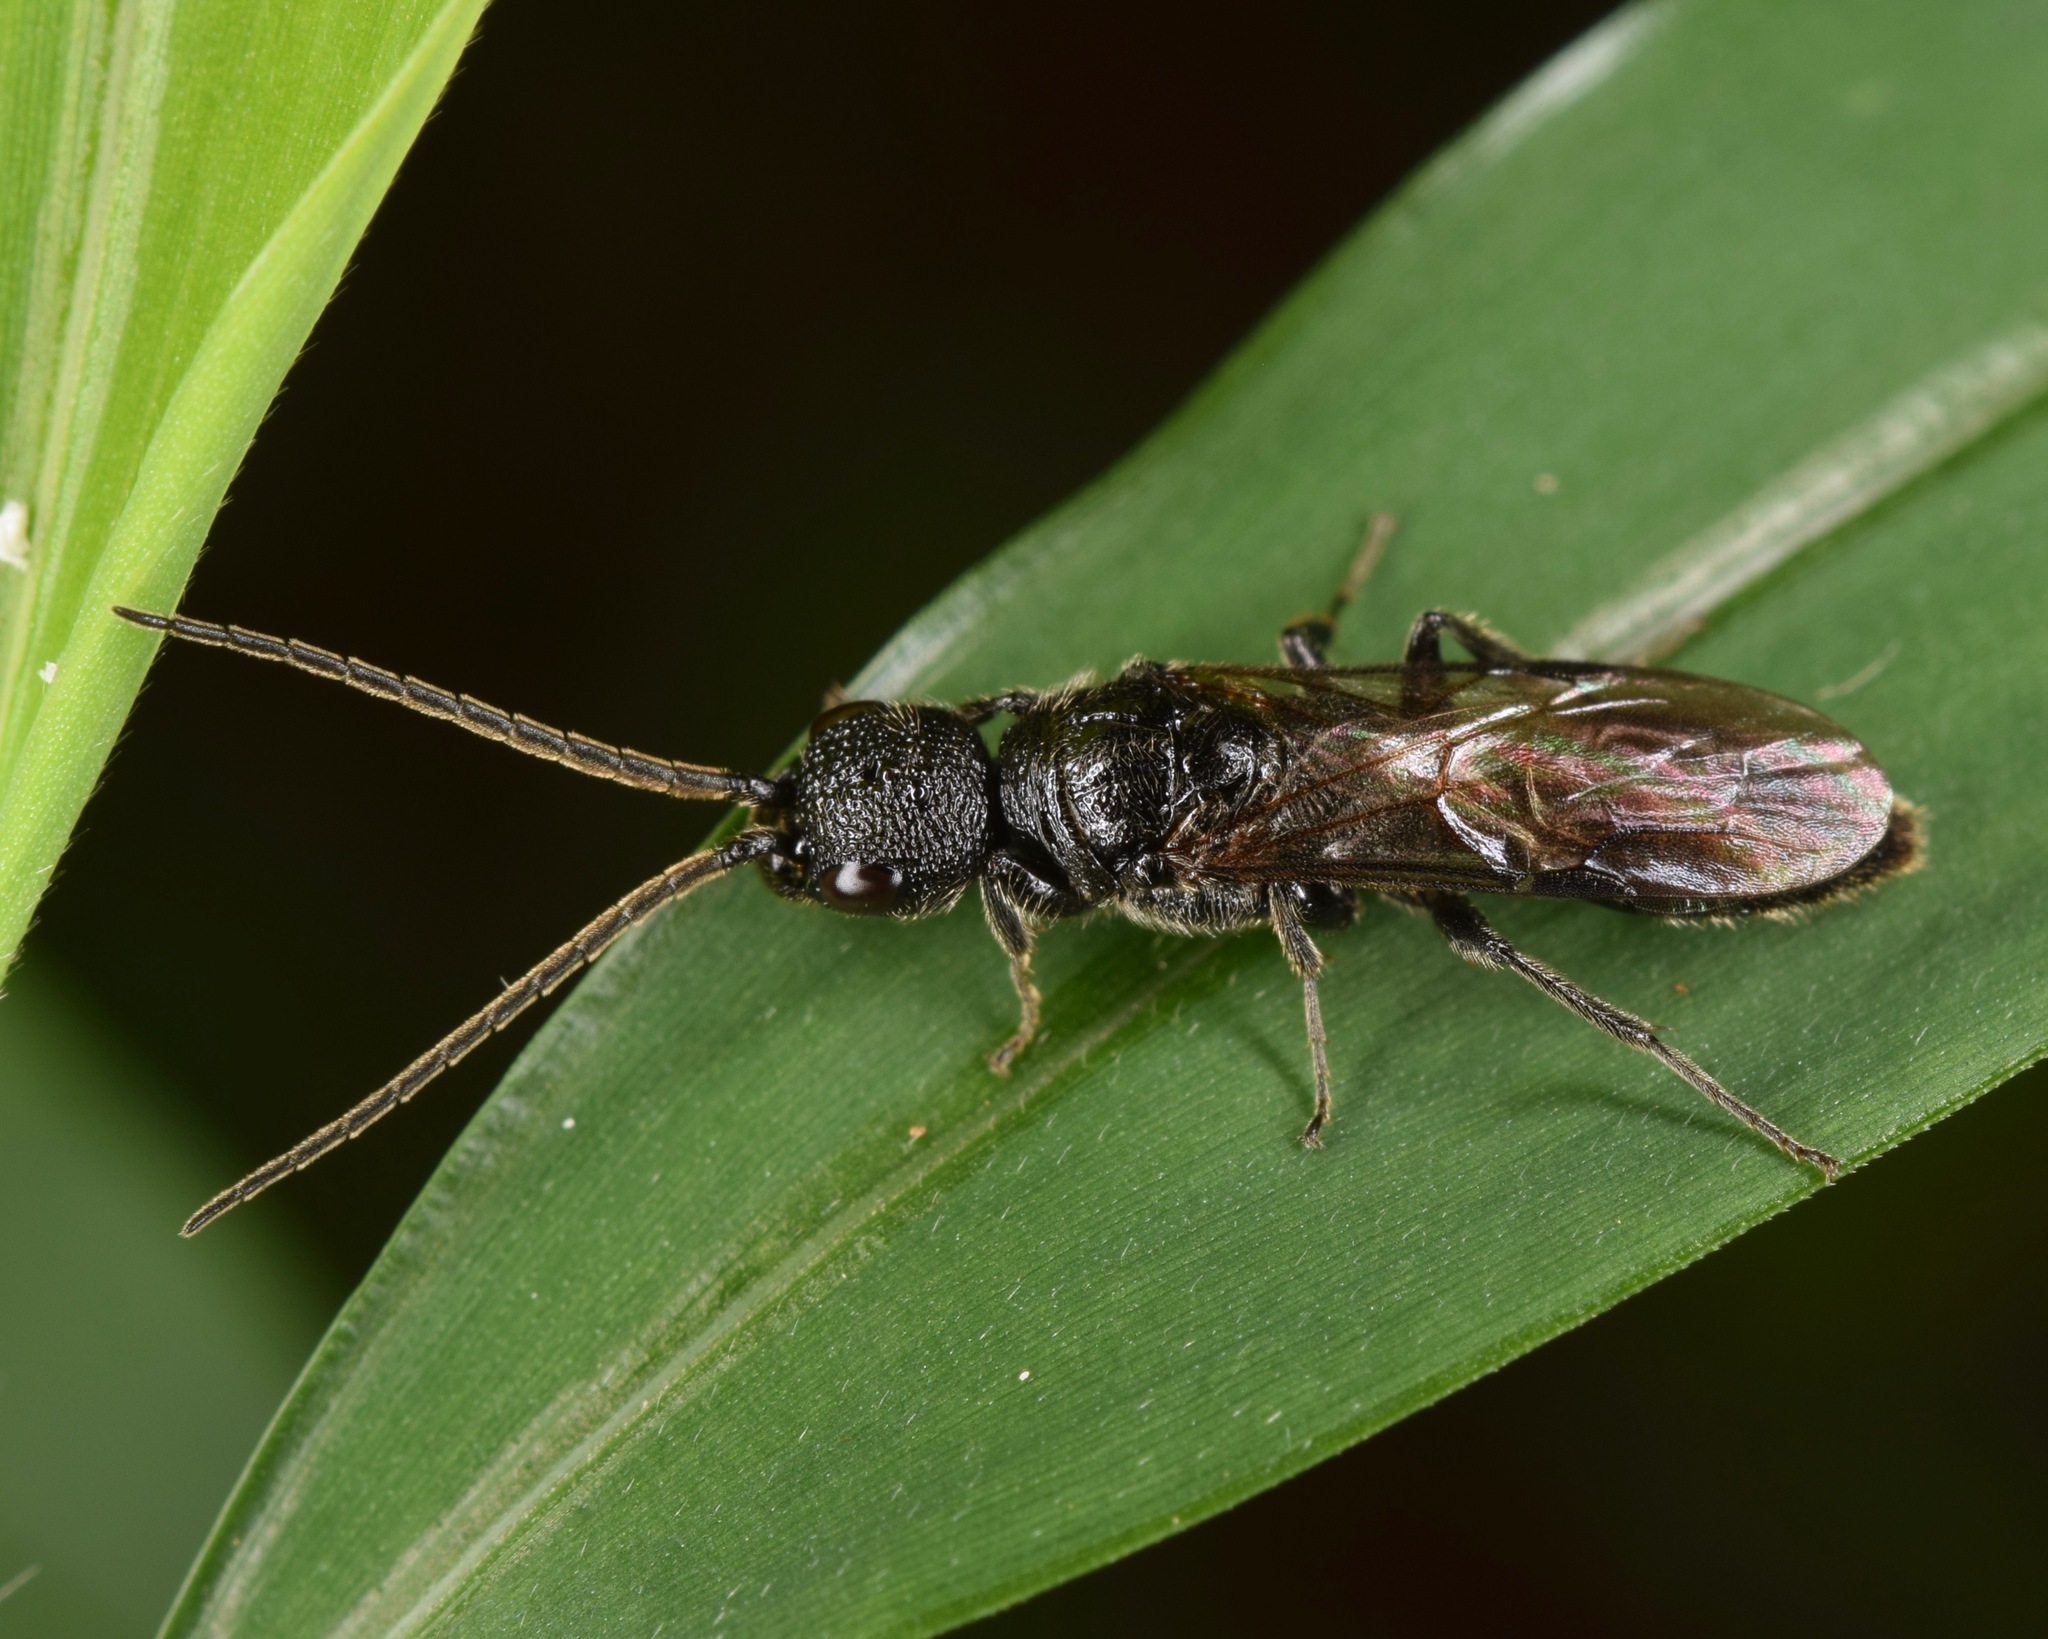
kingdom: Animalia
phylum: Arthropoda
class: Insecta
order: Hymenoptera
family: Bethylidae
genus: Pristepyris
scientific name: Pristepyris
